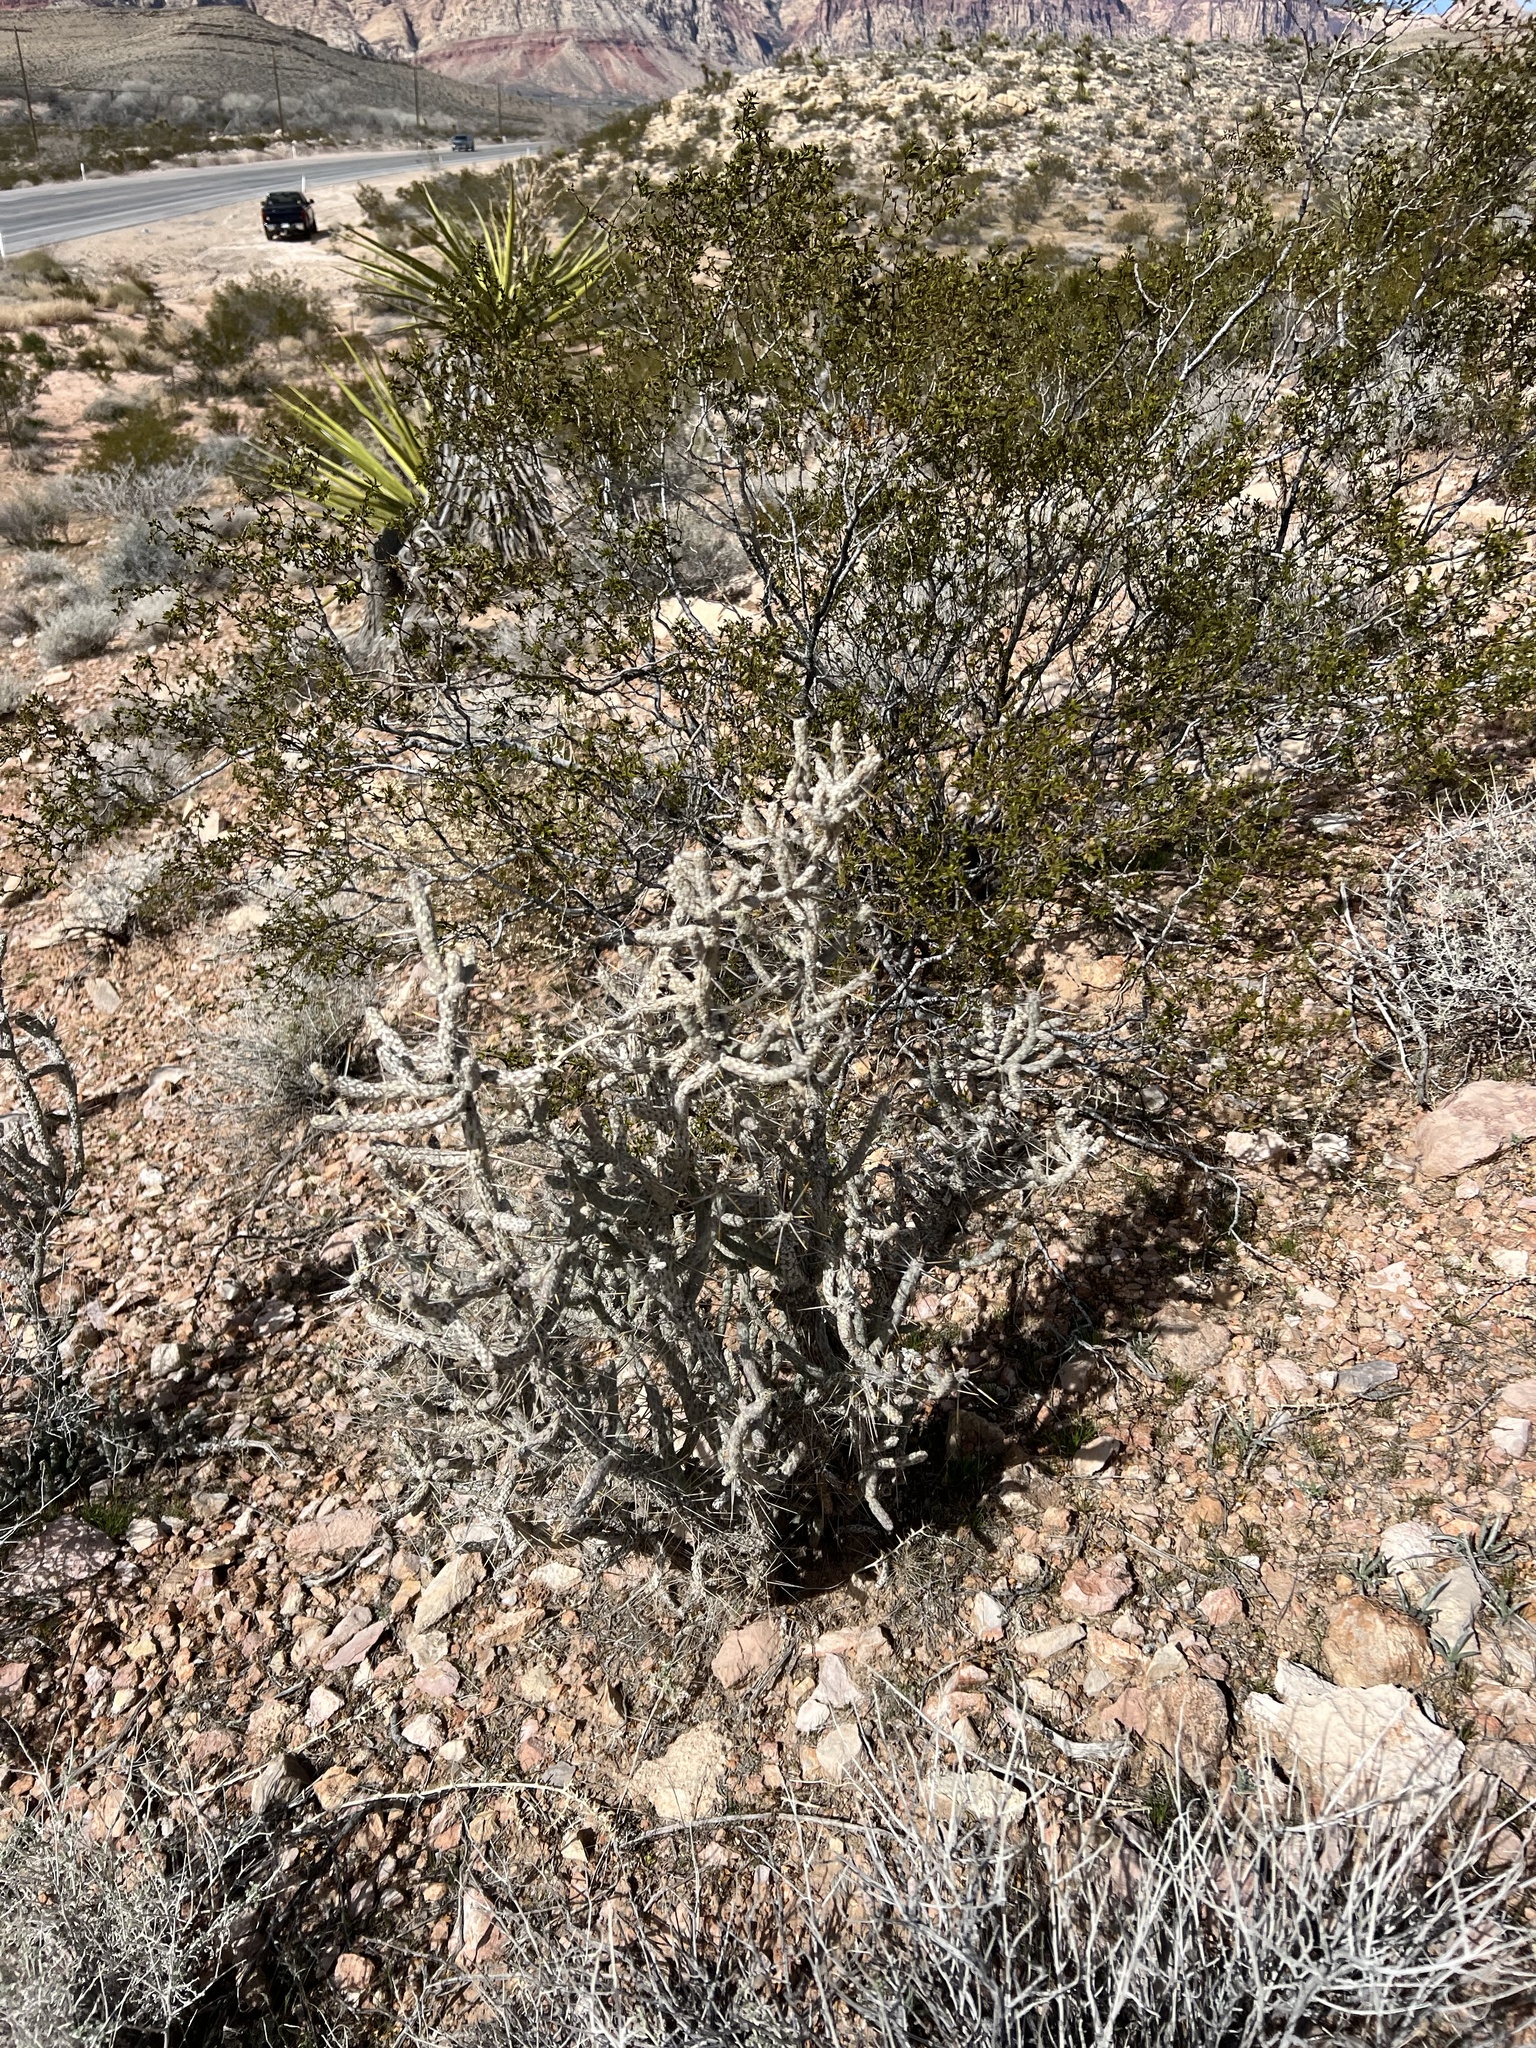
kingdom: Plantae
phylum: Tracheophyta
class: Magnoliopsida
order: Caryophyllales
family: Cactaceae
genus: Cylindropuntia
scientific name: Cylindropuntia ramosissima
